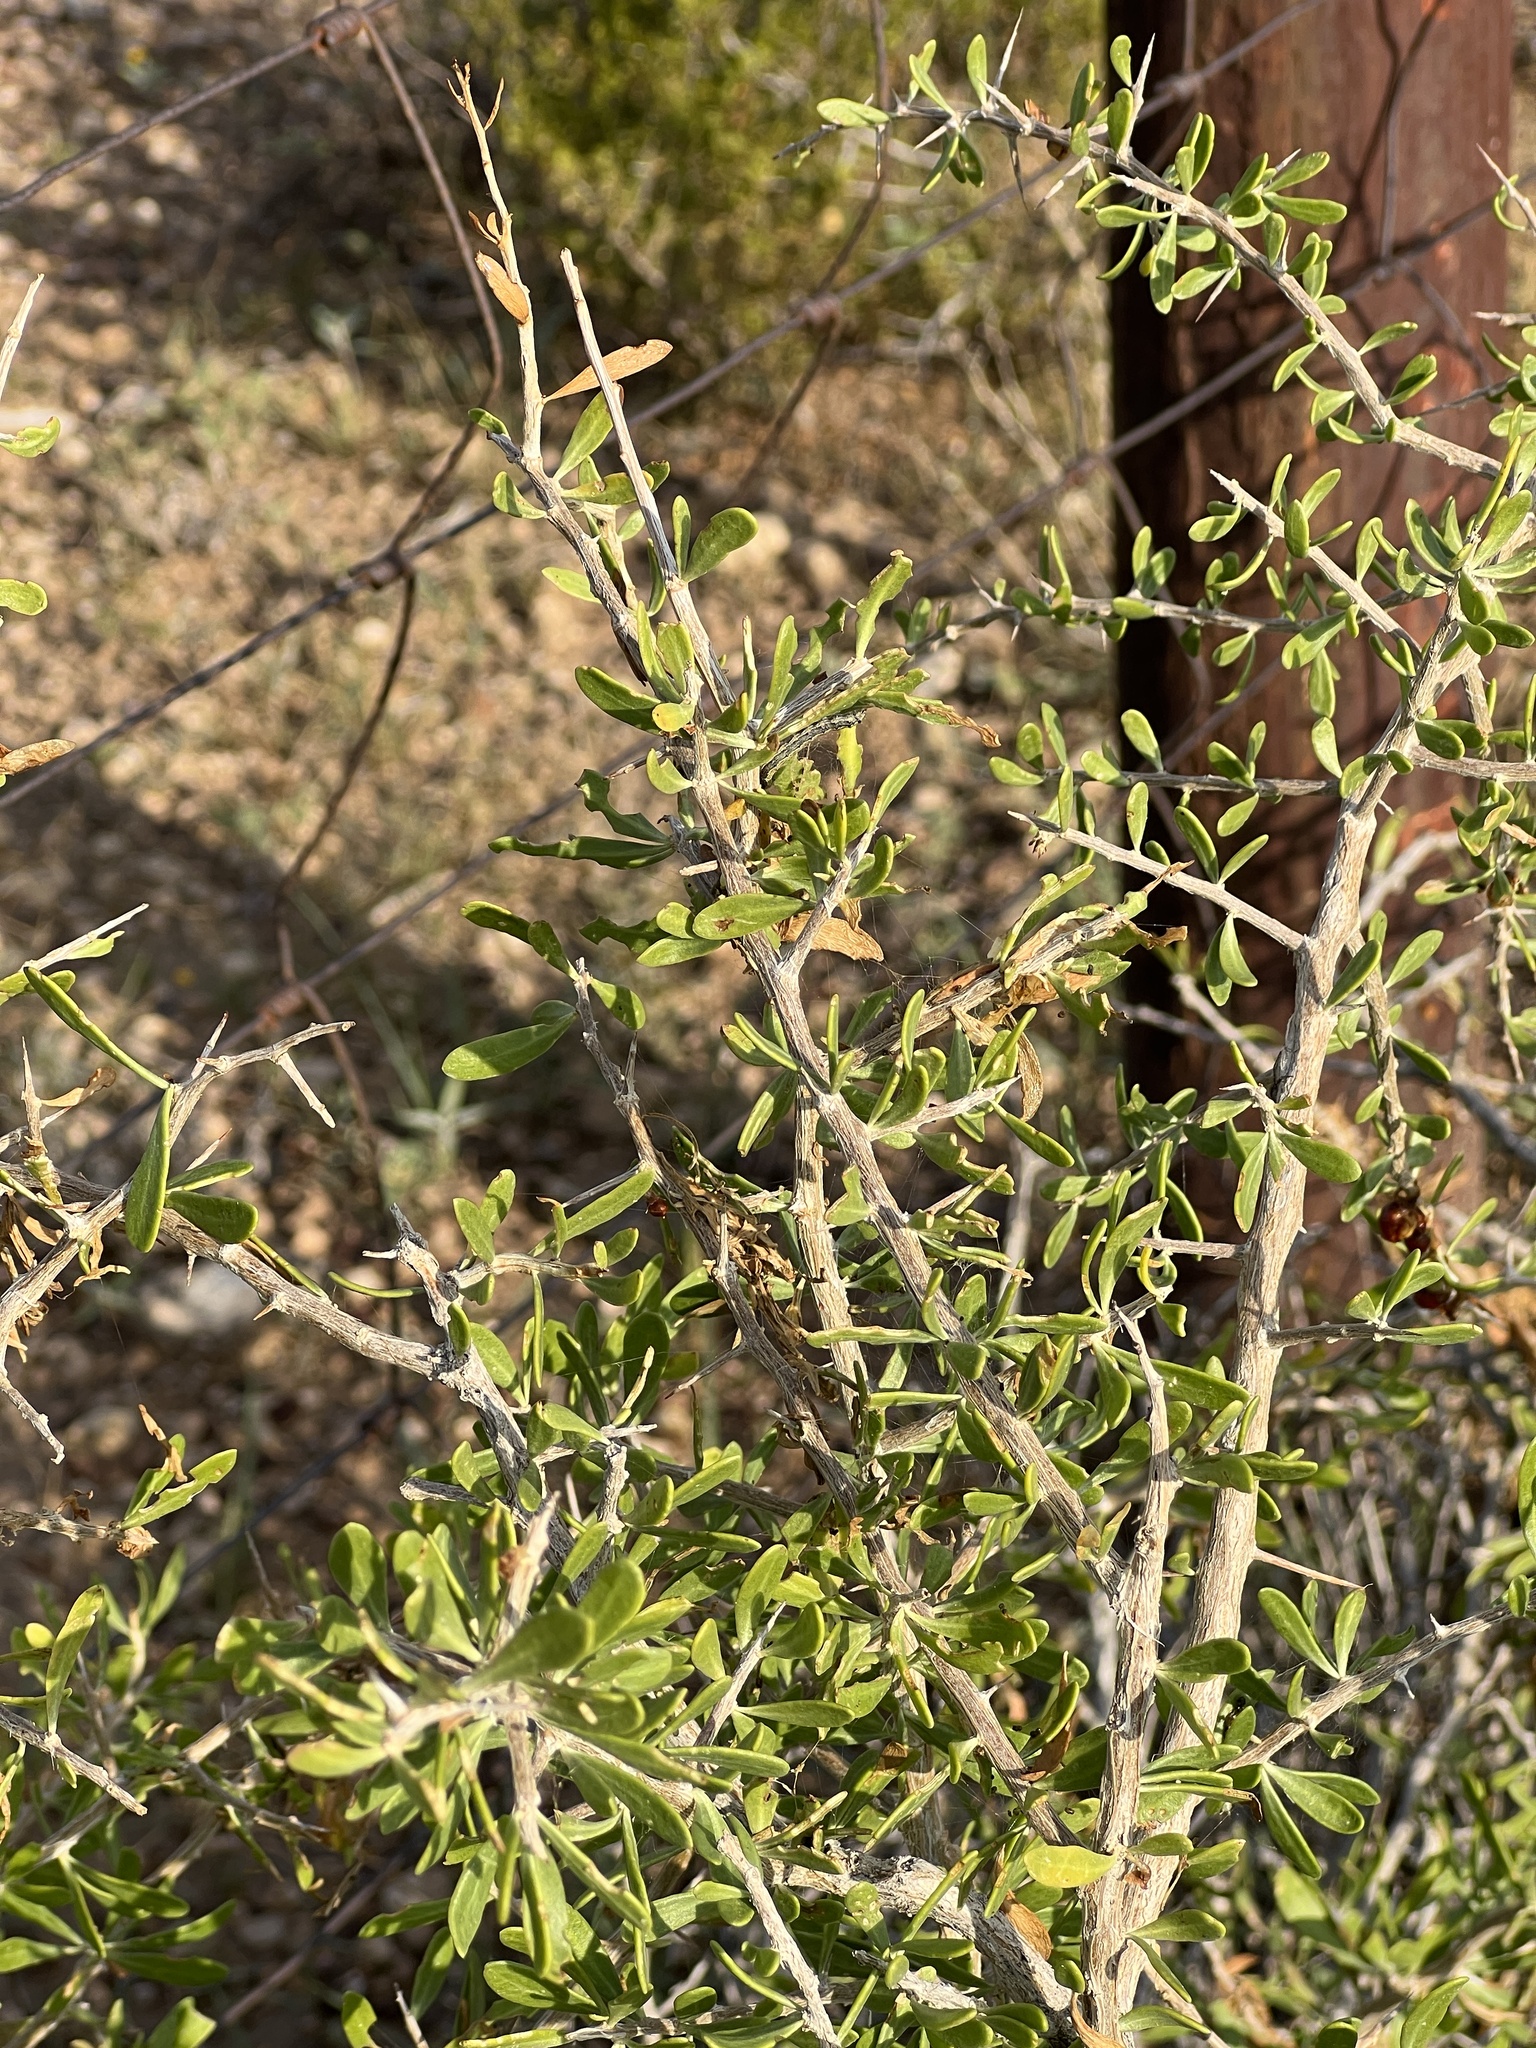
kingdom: Plantae
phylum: Tracheophyta
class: Magnoliopsida
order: Rosales
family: Rhamnaceae
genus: Sarcomphalus
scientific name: Sarcomphalus obtusifolius
